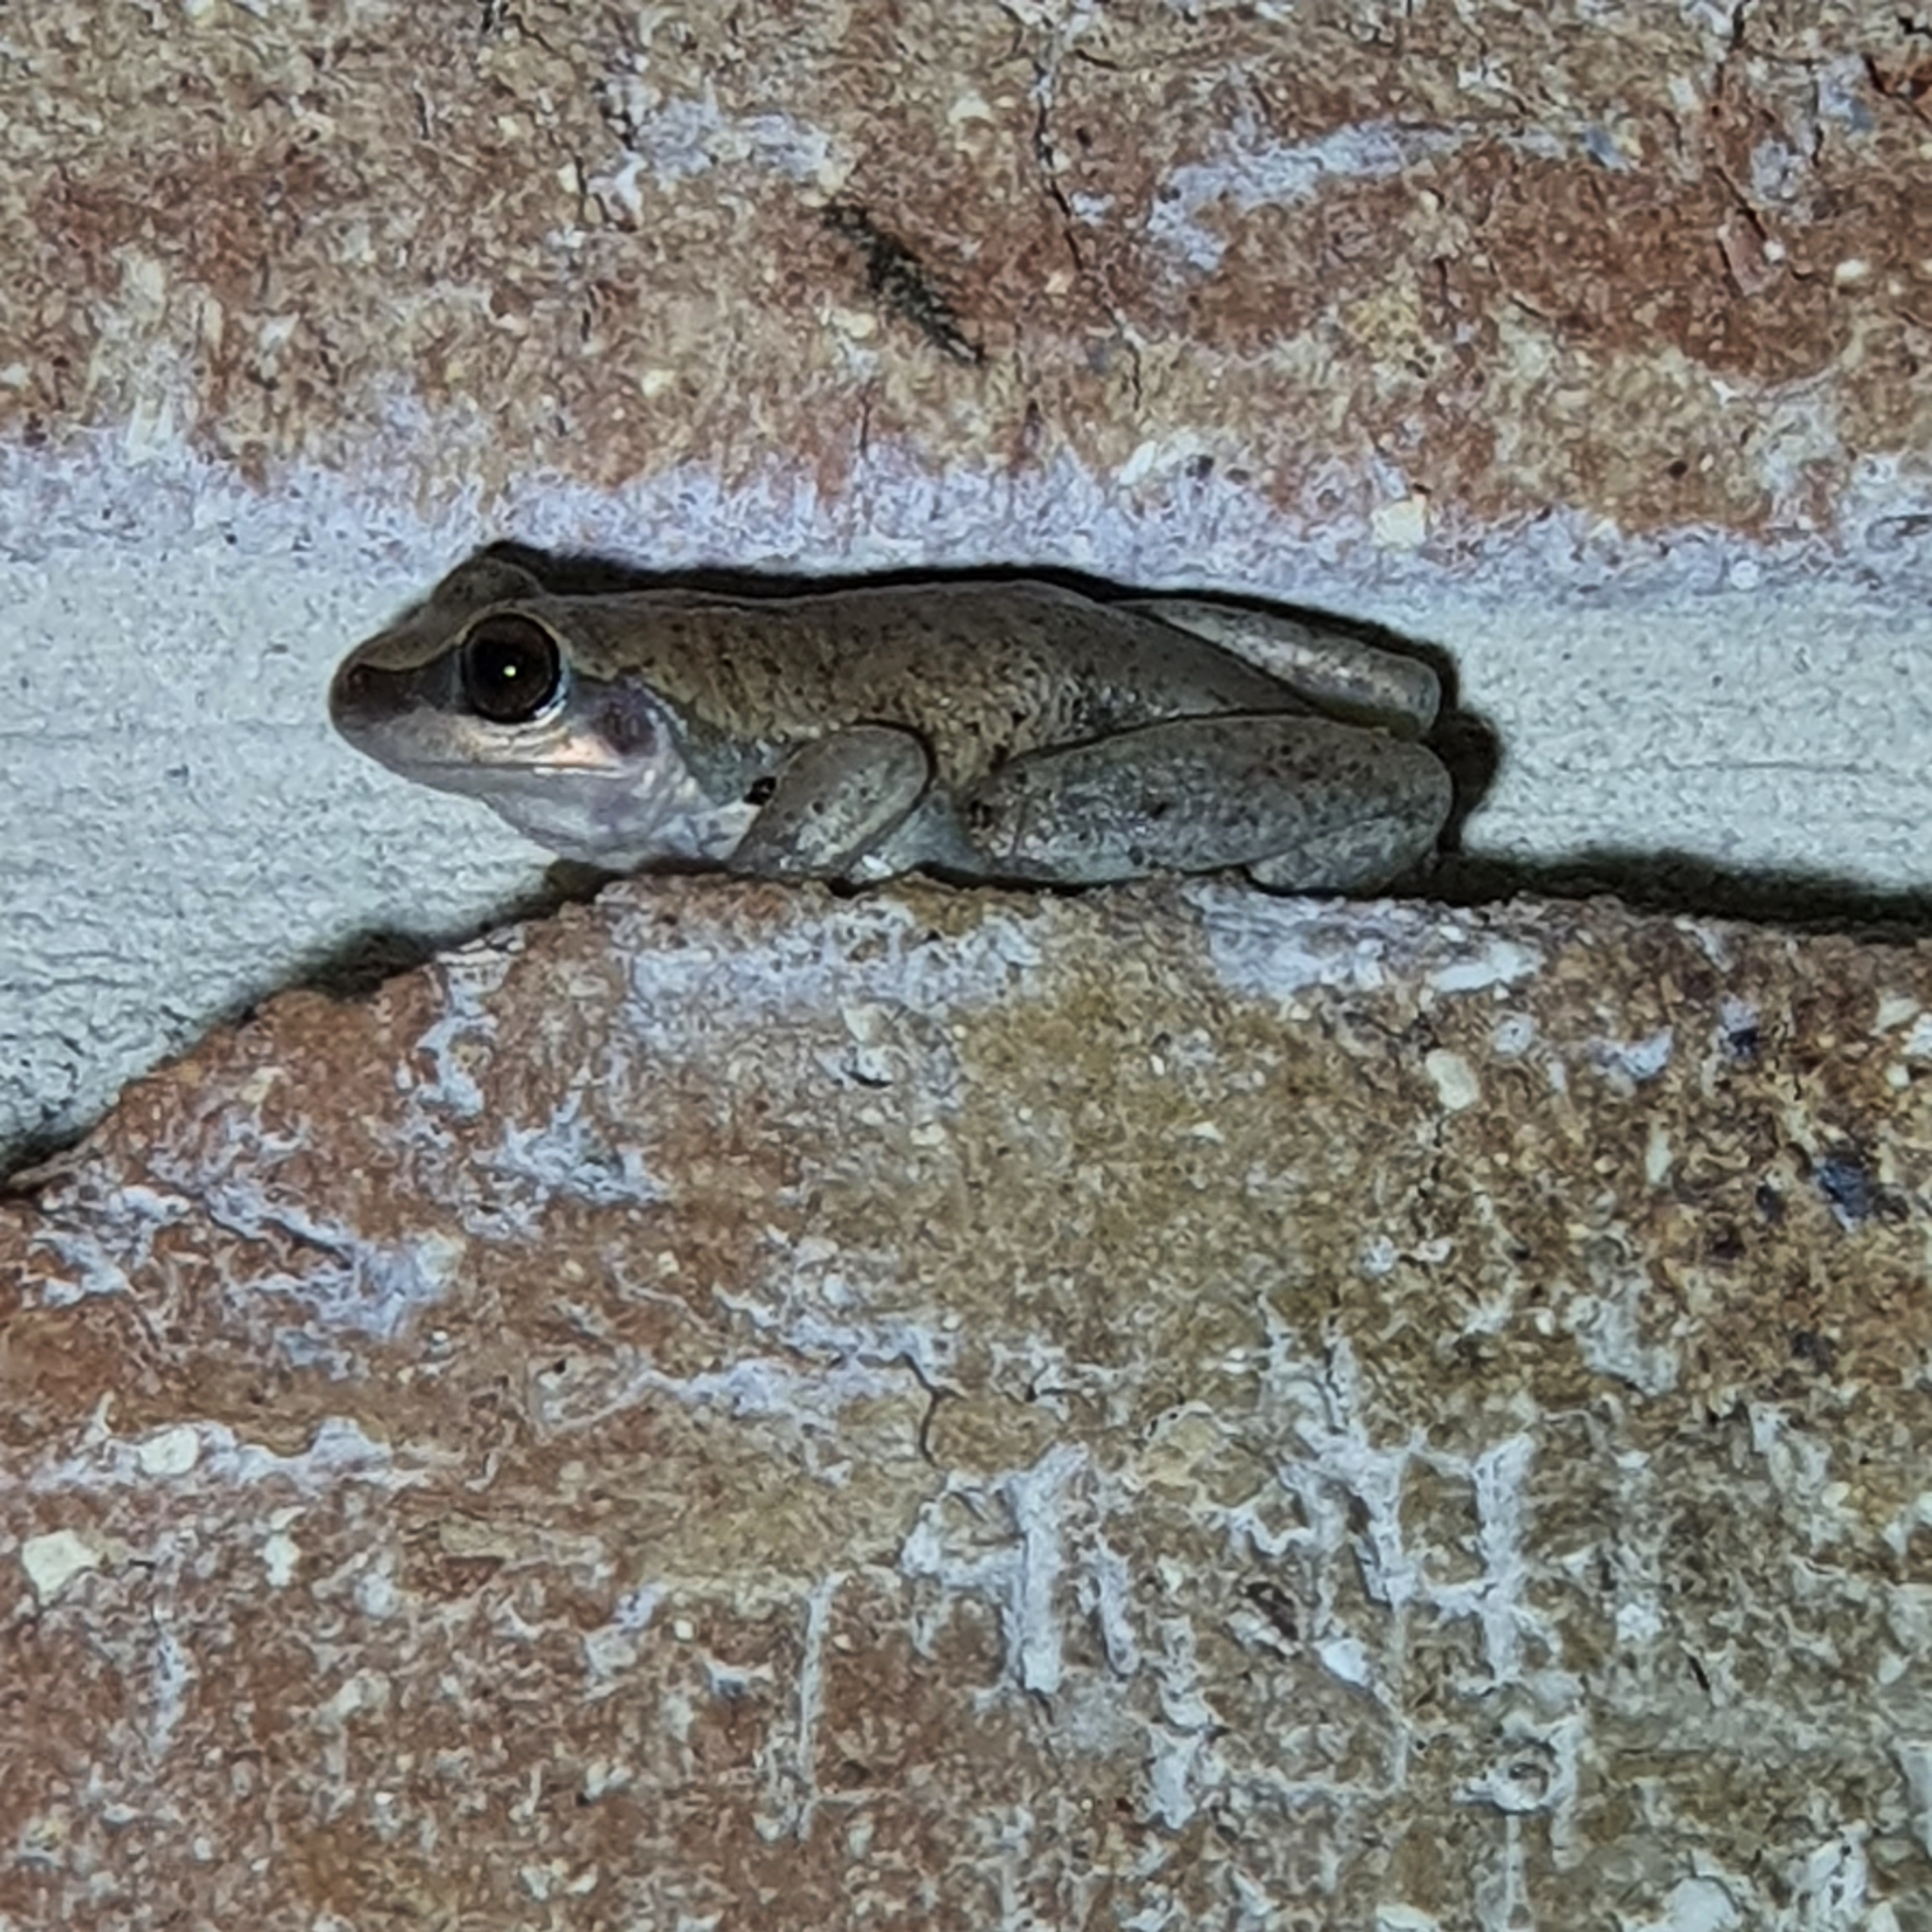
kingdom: Animalia
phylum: Chordata
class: Amphibia
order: Anura
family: Pelodryadidae
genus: Litoria
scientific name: Litoria rubella
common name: Desert tree frog
